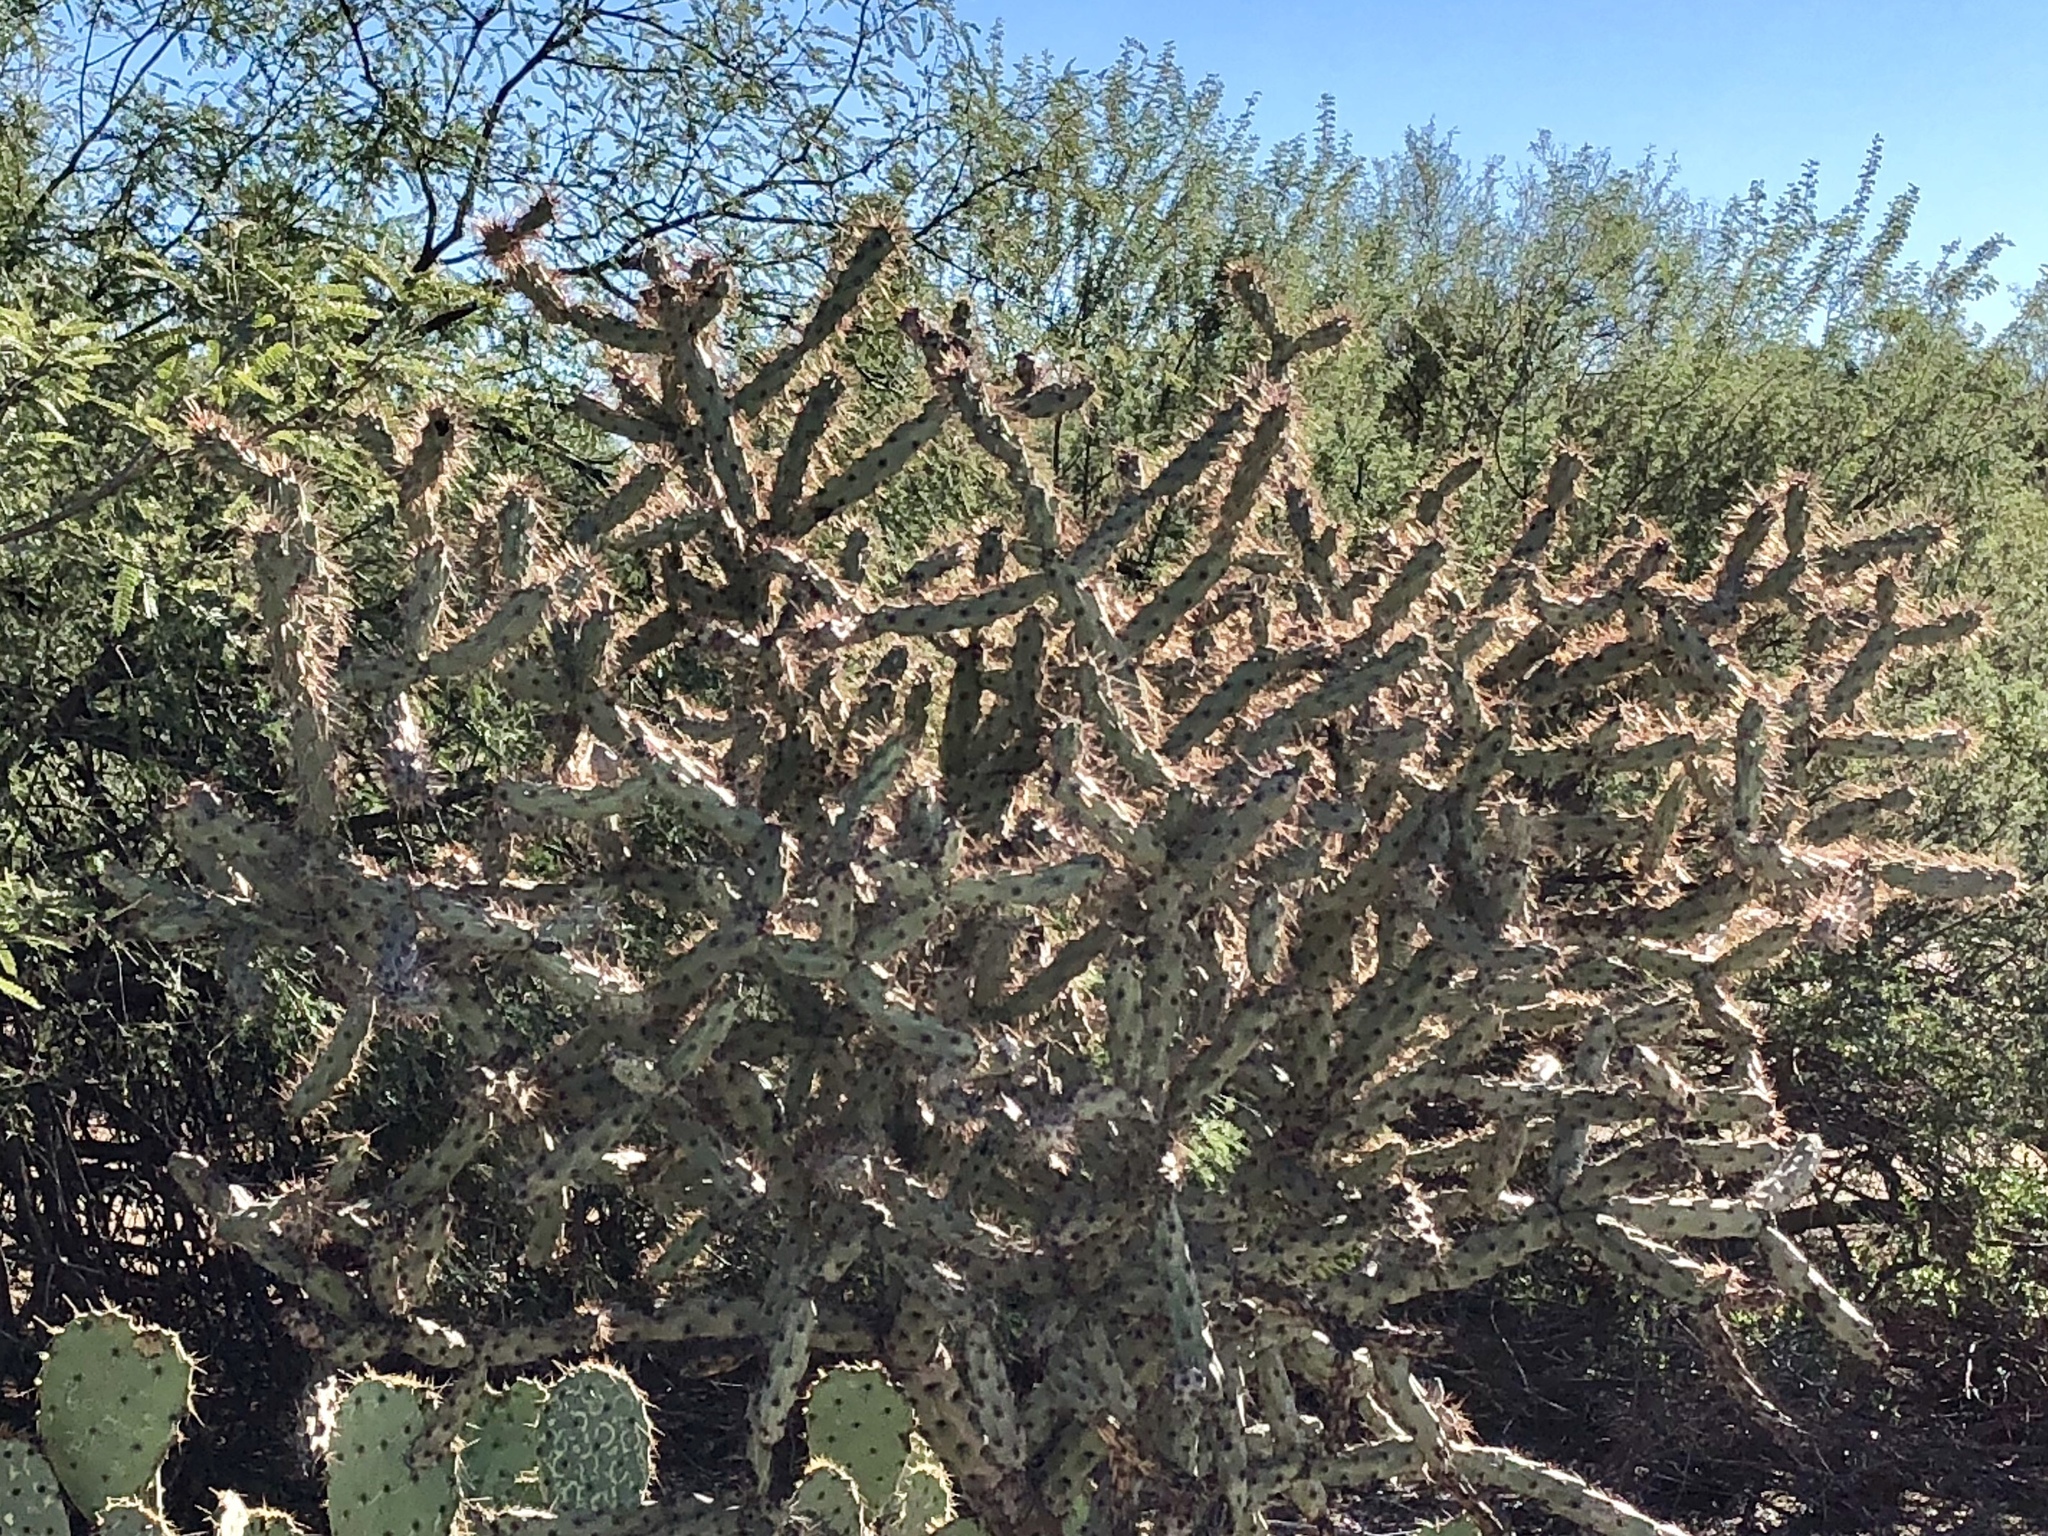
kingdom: Plantae
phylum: Tracheophyta
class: Magnoliopsida
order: Caryophyllales
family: Cactaceae
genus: Cylindropuntia
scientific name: Cylindropuntia acanthocarpa
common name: Buckhorn cholla
